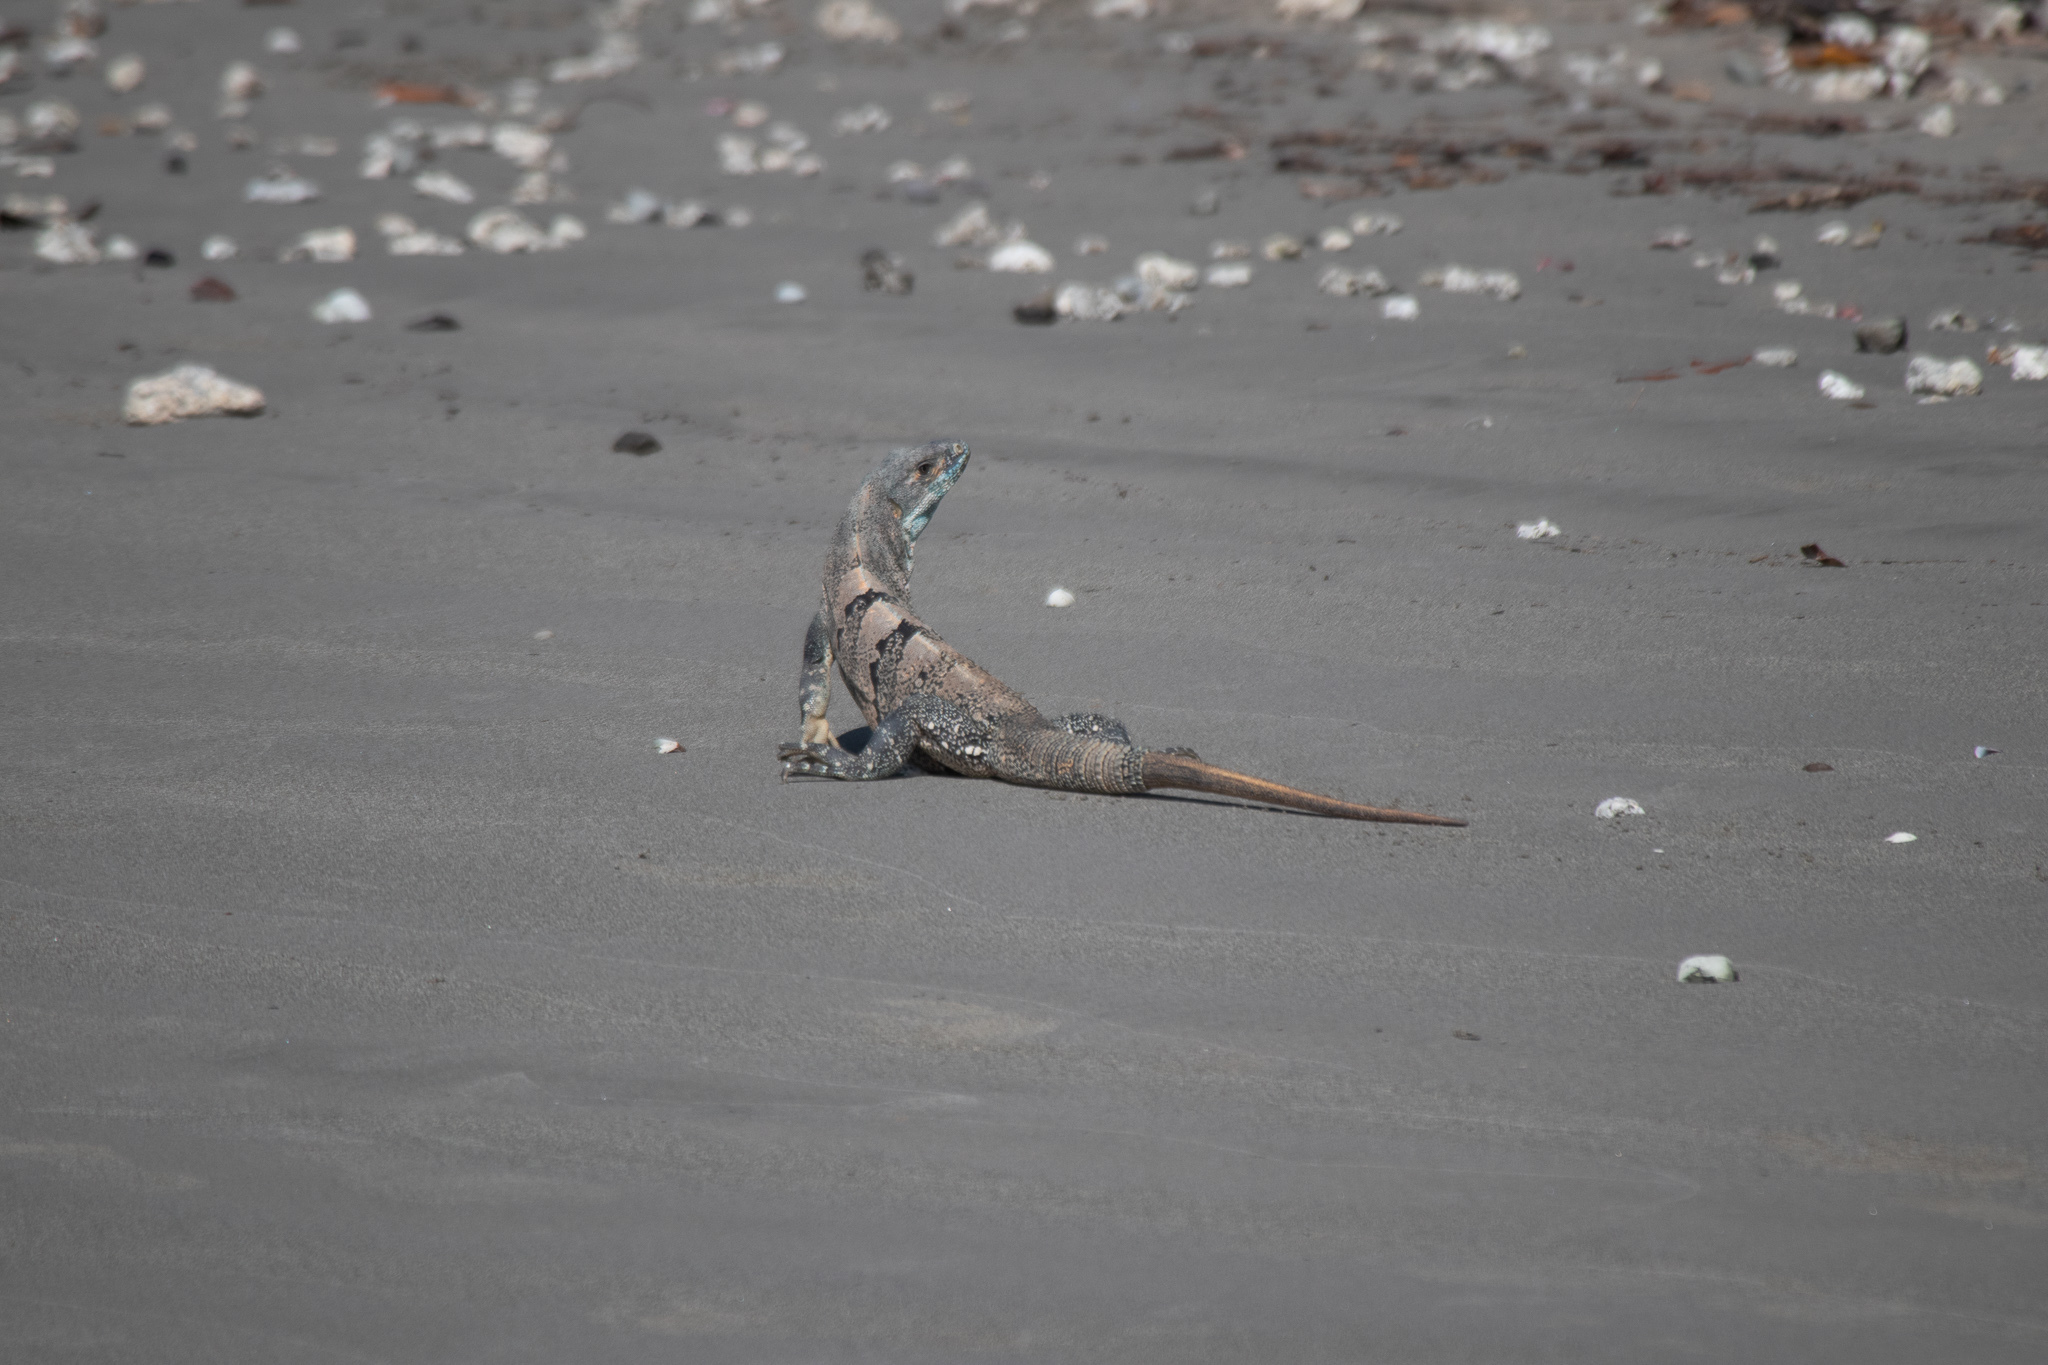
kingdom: Animalia
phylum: Chordata
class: Squamata
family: Iguanidae
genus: Ctenosaura
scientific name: Ctenosaura similis
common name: Black spiny-tailed iguana
